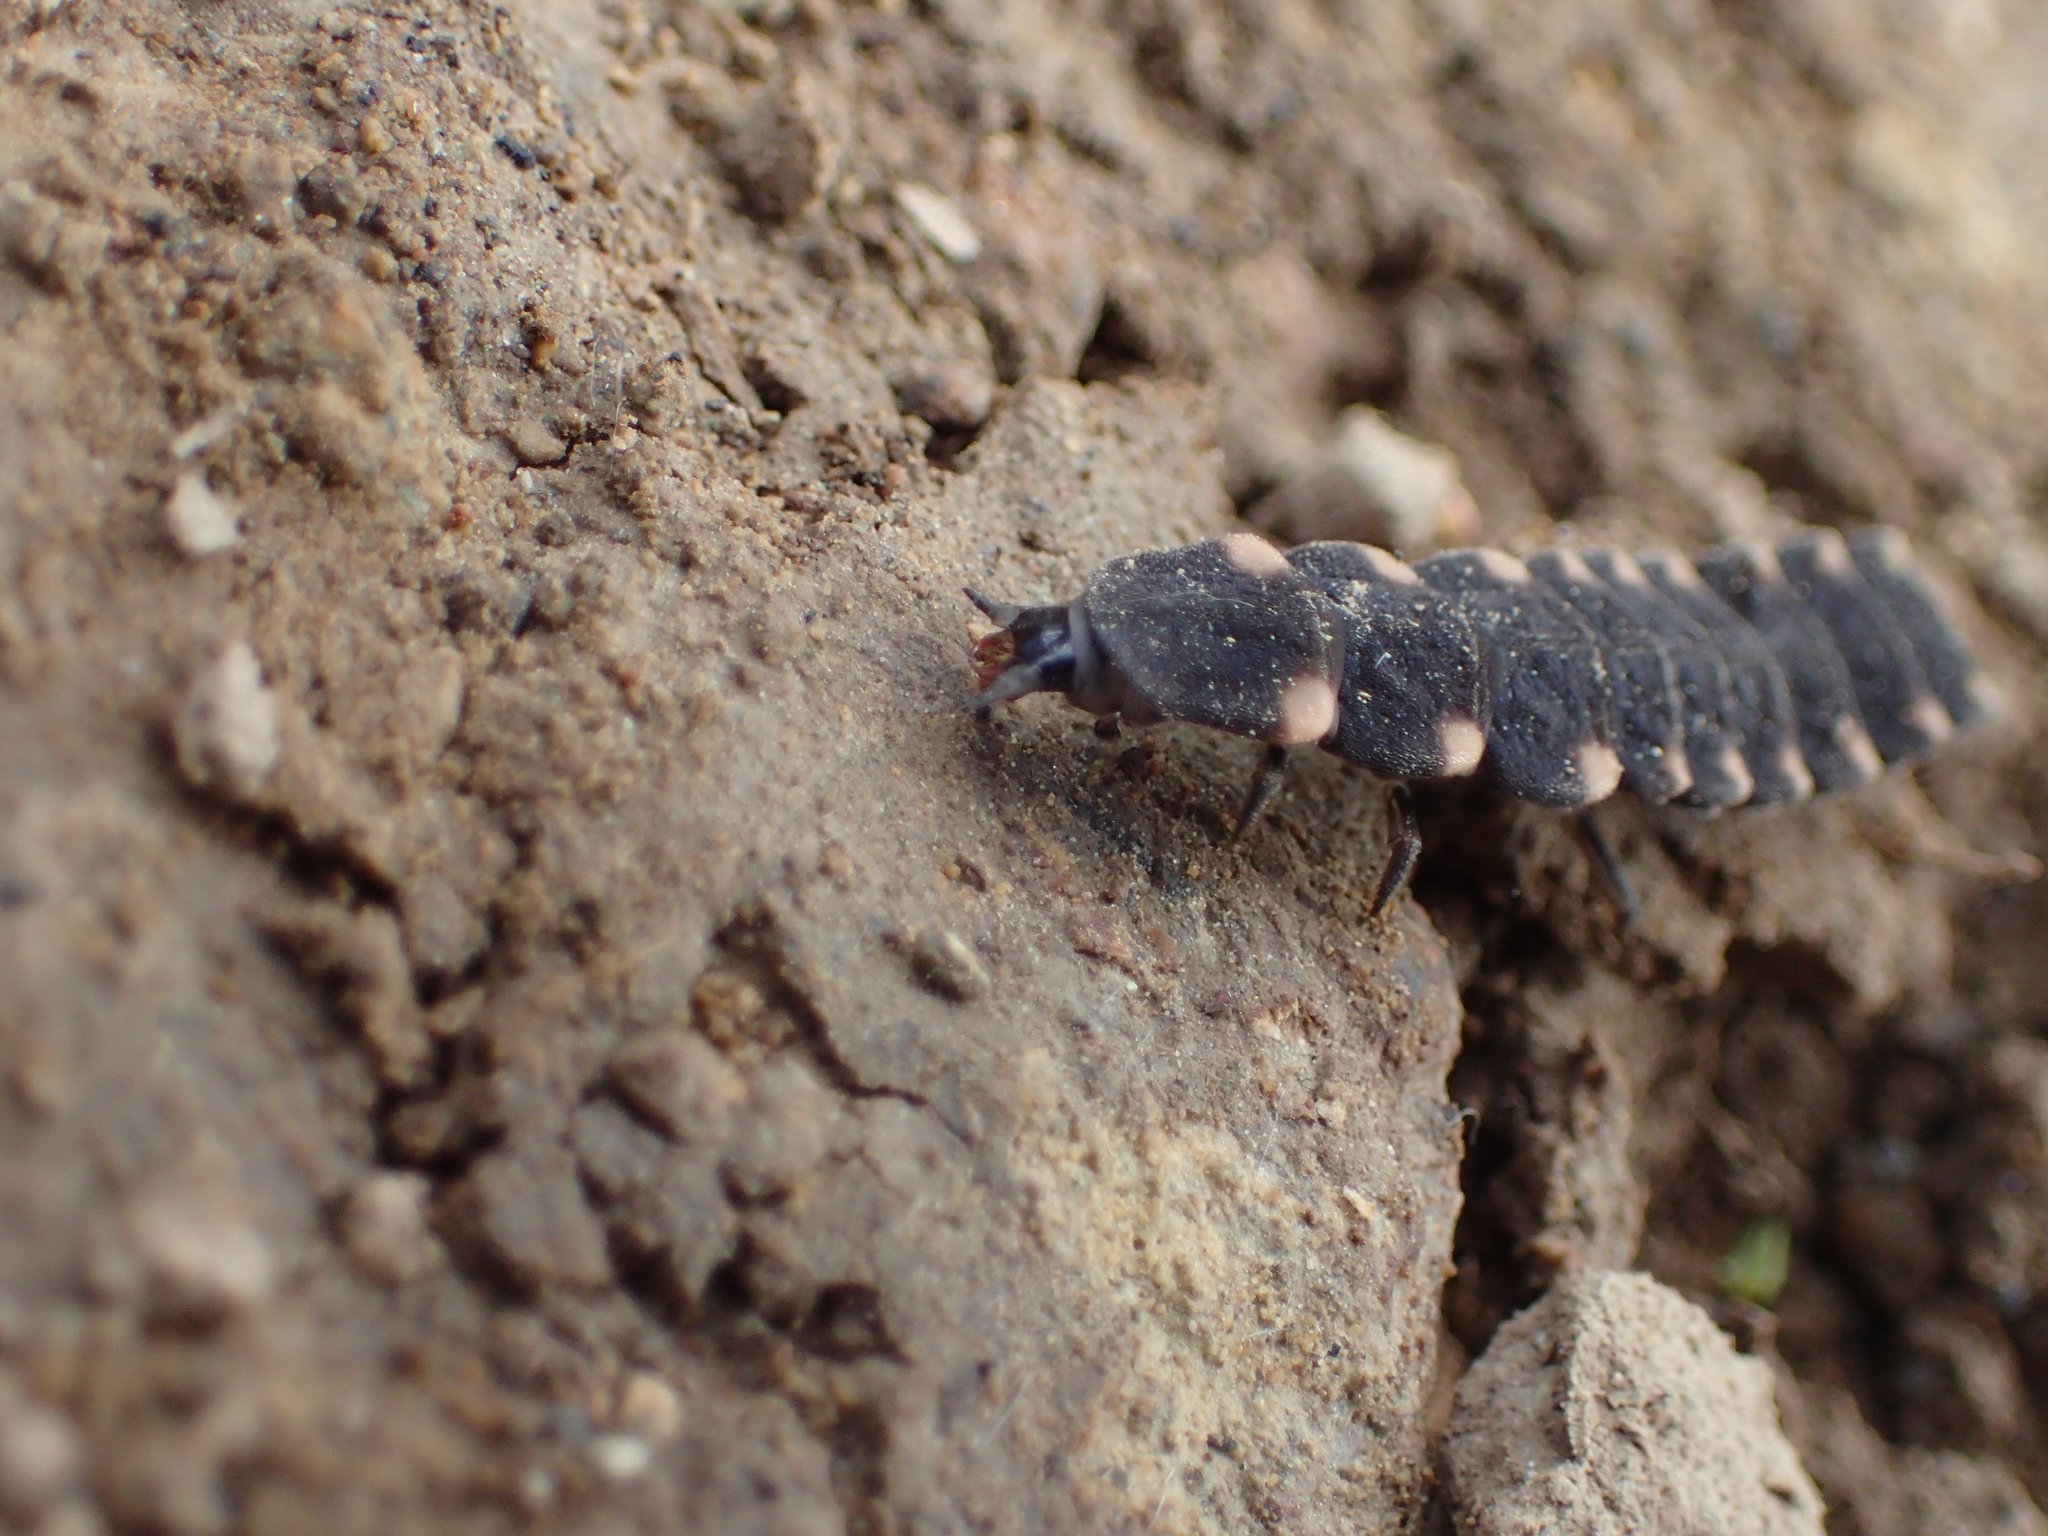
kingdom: Animalia
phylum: Arthropoda
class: Insecta
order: Coleoptera
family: Lampyridae
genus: Lampyris
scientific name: Lampyris noctiluca
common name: Glow-worm
